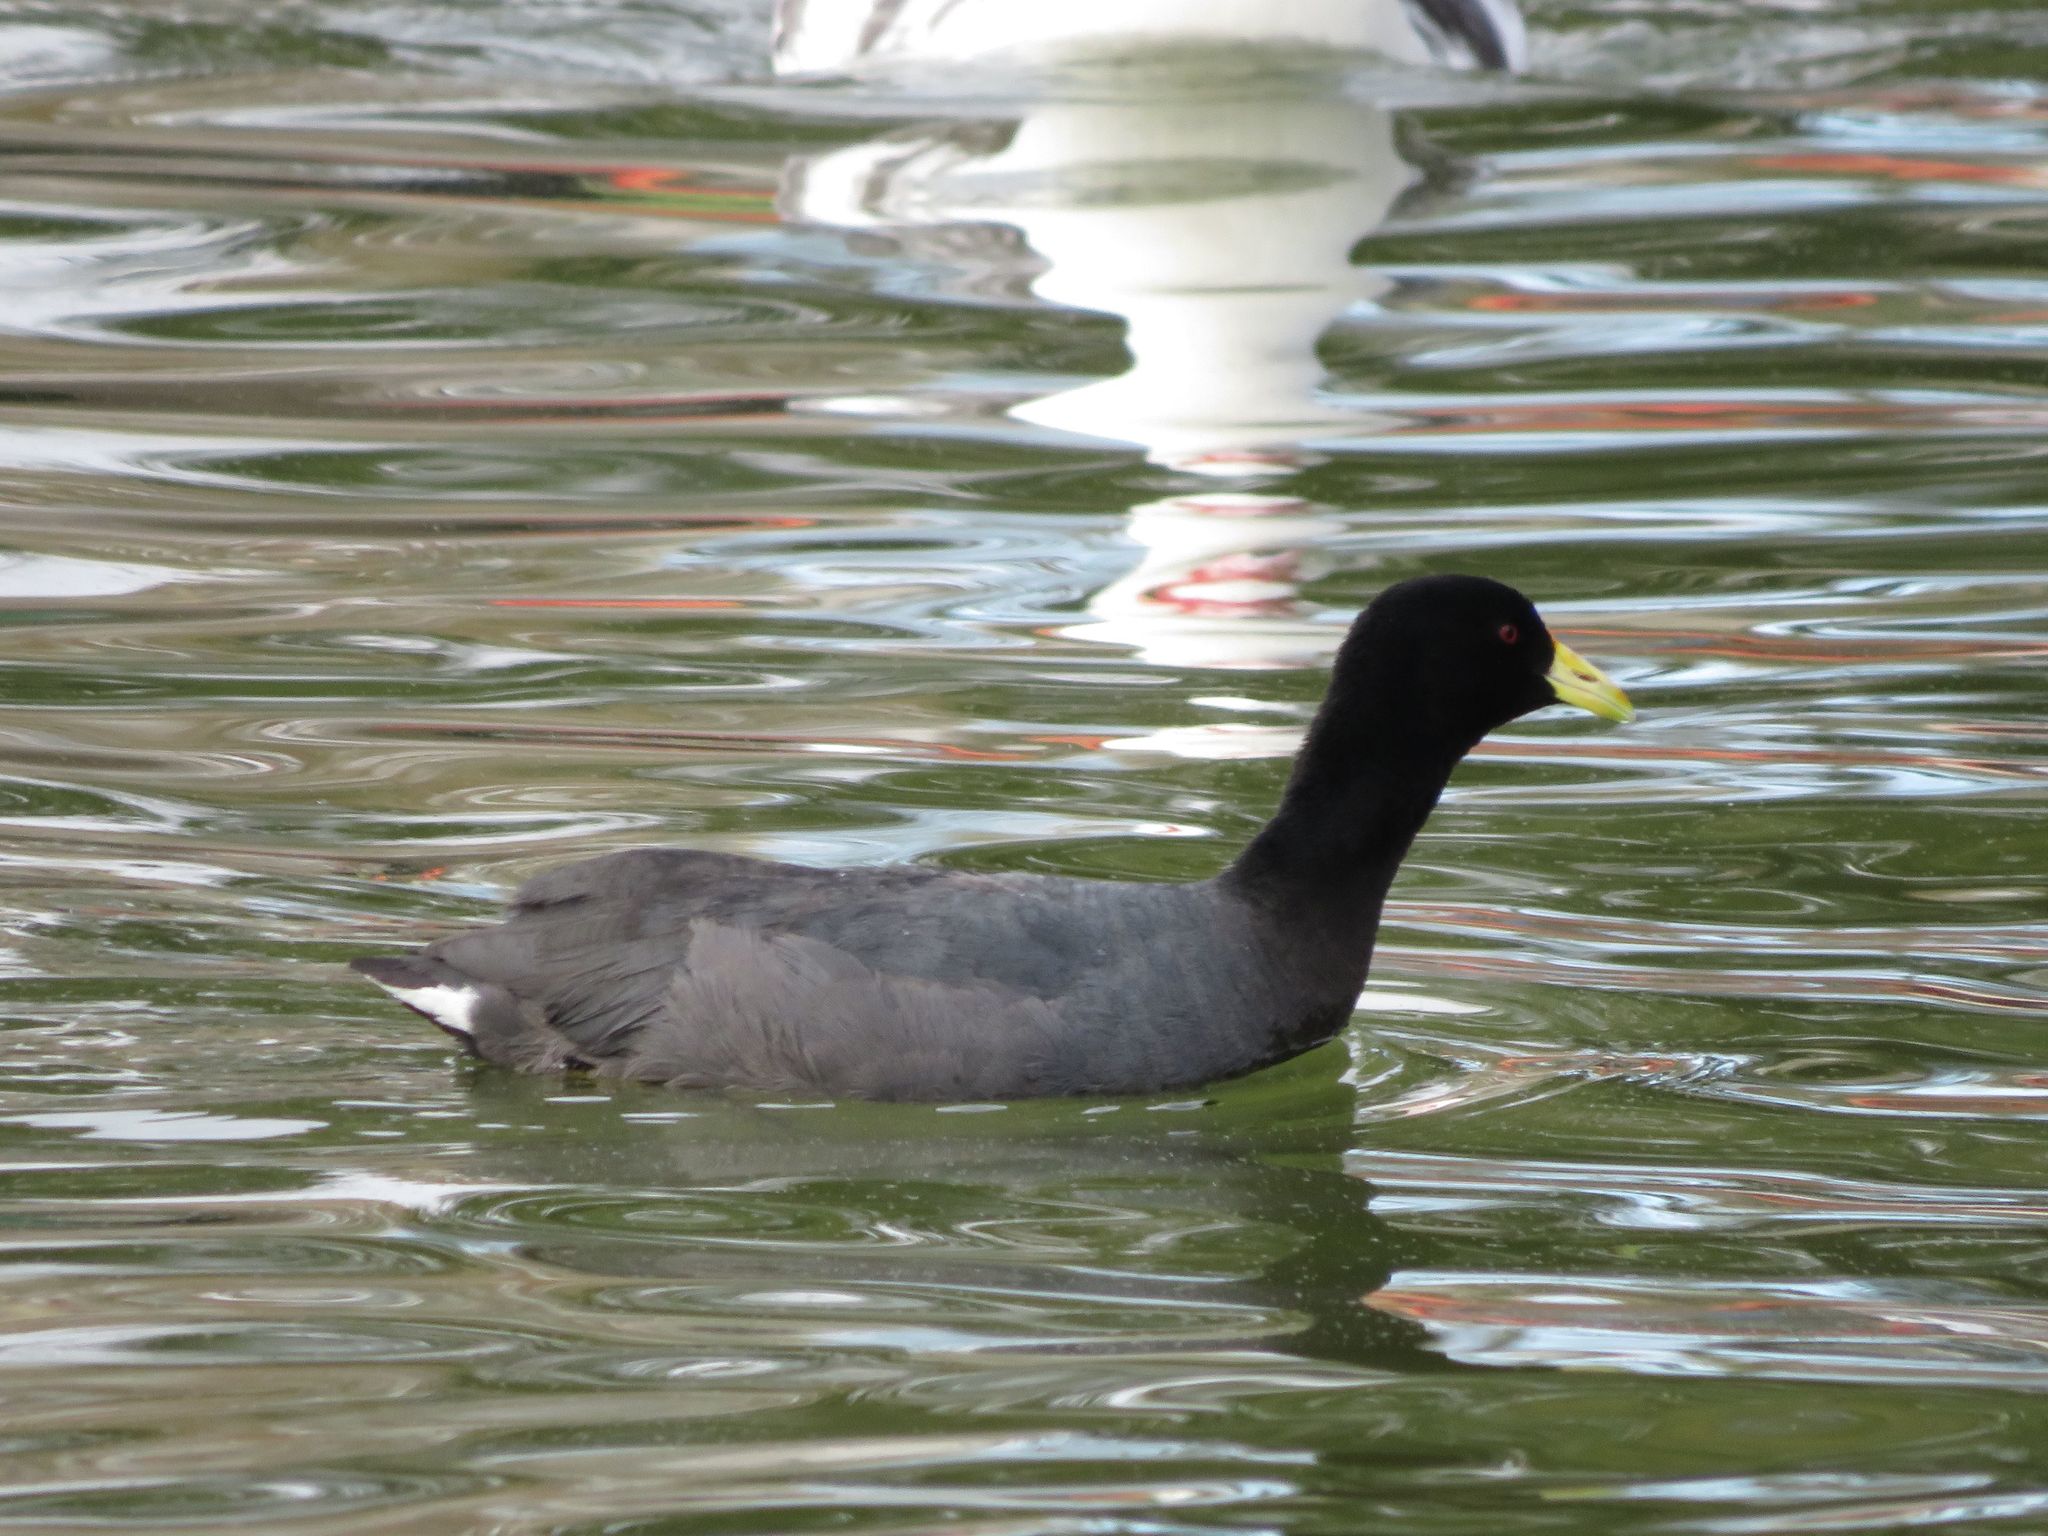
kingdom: Animalia
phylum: Chordata
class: Aves
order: Gruiformes
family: Rallidae
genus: Fulica
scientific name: Fulica leucoptera
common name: White-winged coot
